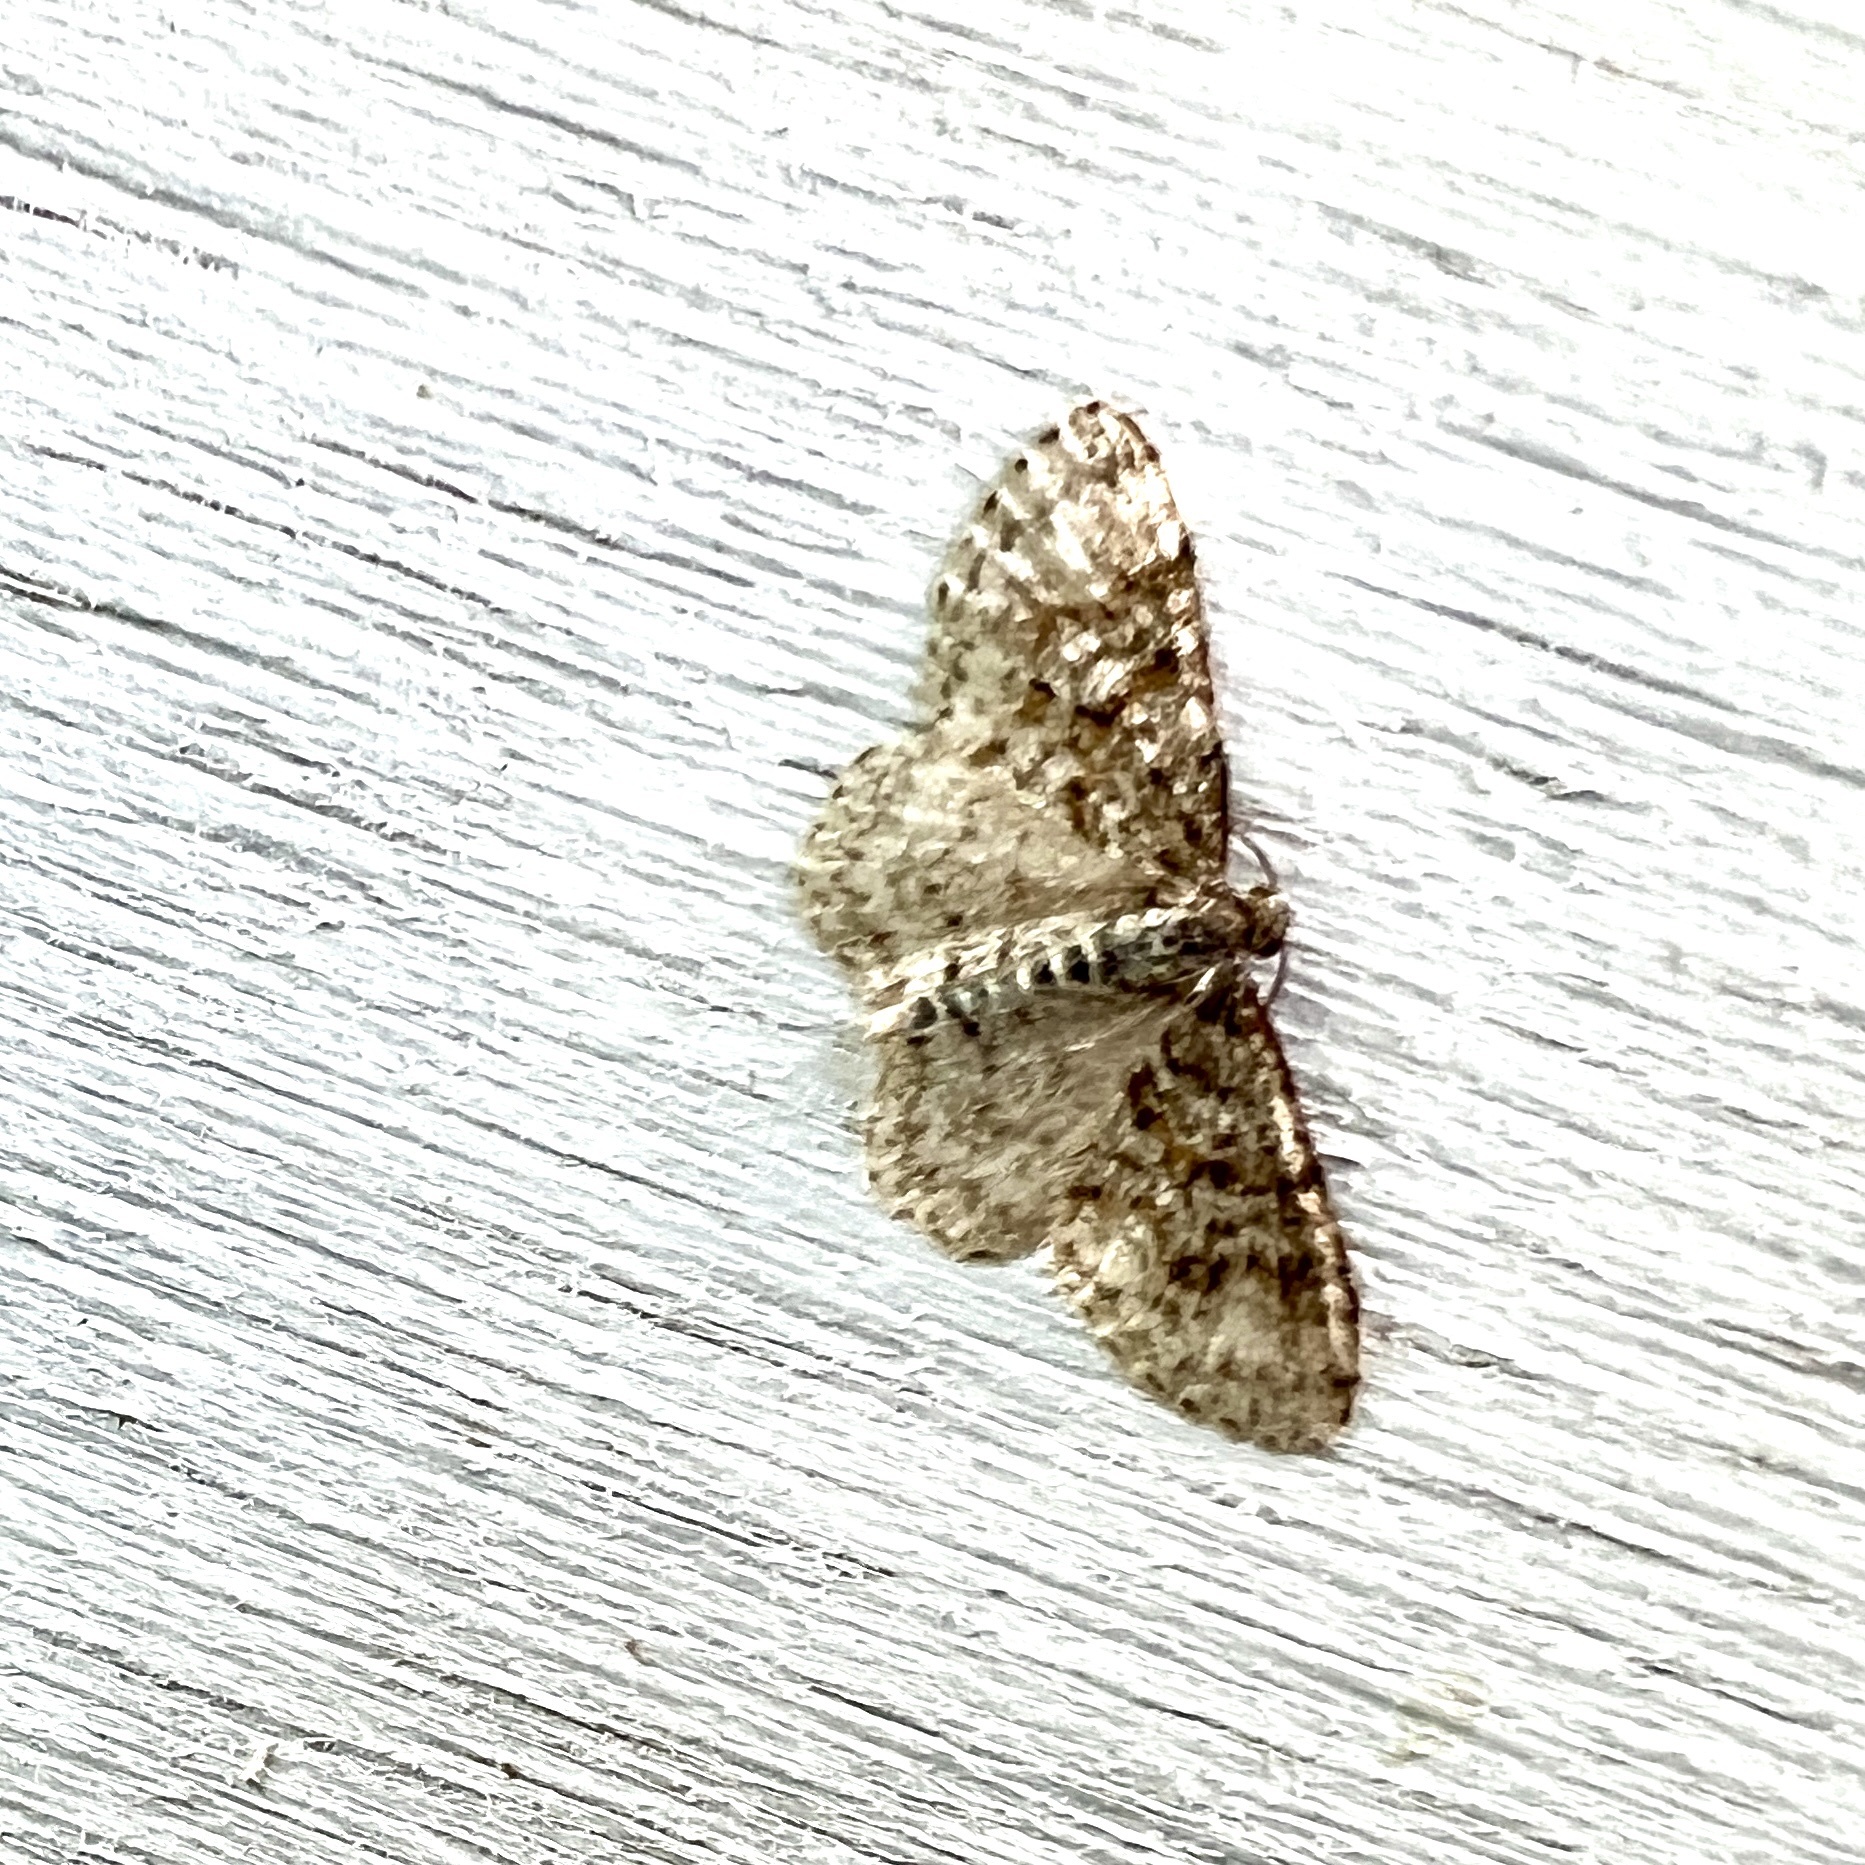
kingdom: Animalia
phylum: Arthropoda
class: Insecta
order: Lepidoptera
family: Geometridae
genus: Hydrelia
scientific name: Hydrelia inornata
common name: Unadorned carpet moth
